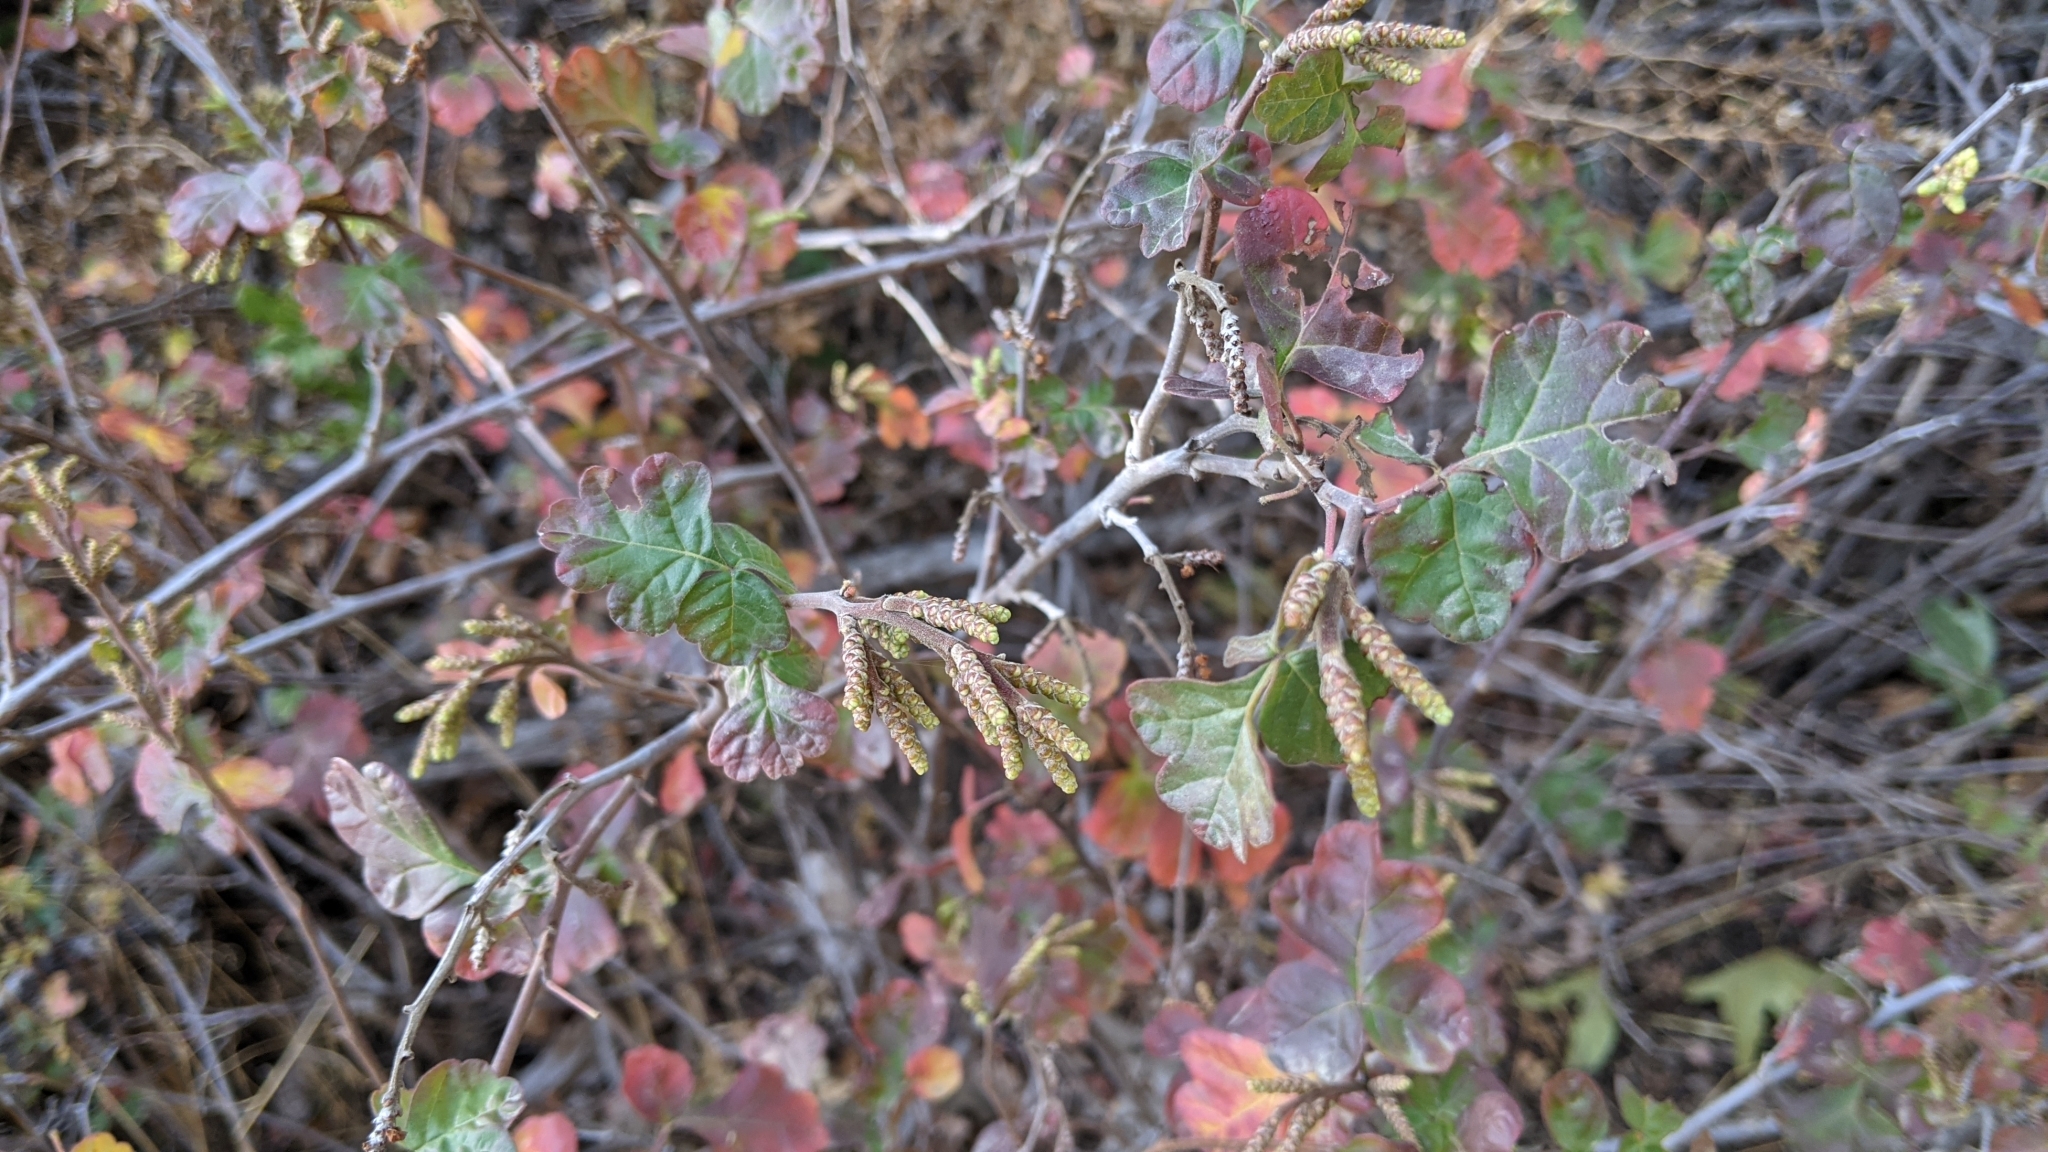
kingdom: Plantae
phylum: Tracheophyta
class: Magnoliopsida
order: Sapindales
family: Anacardiaceae
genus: Rhus
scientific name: Rhus aromatica
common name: Aromatic sumac
